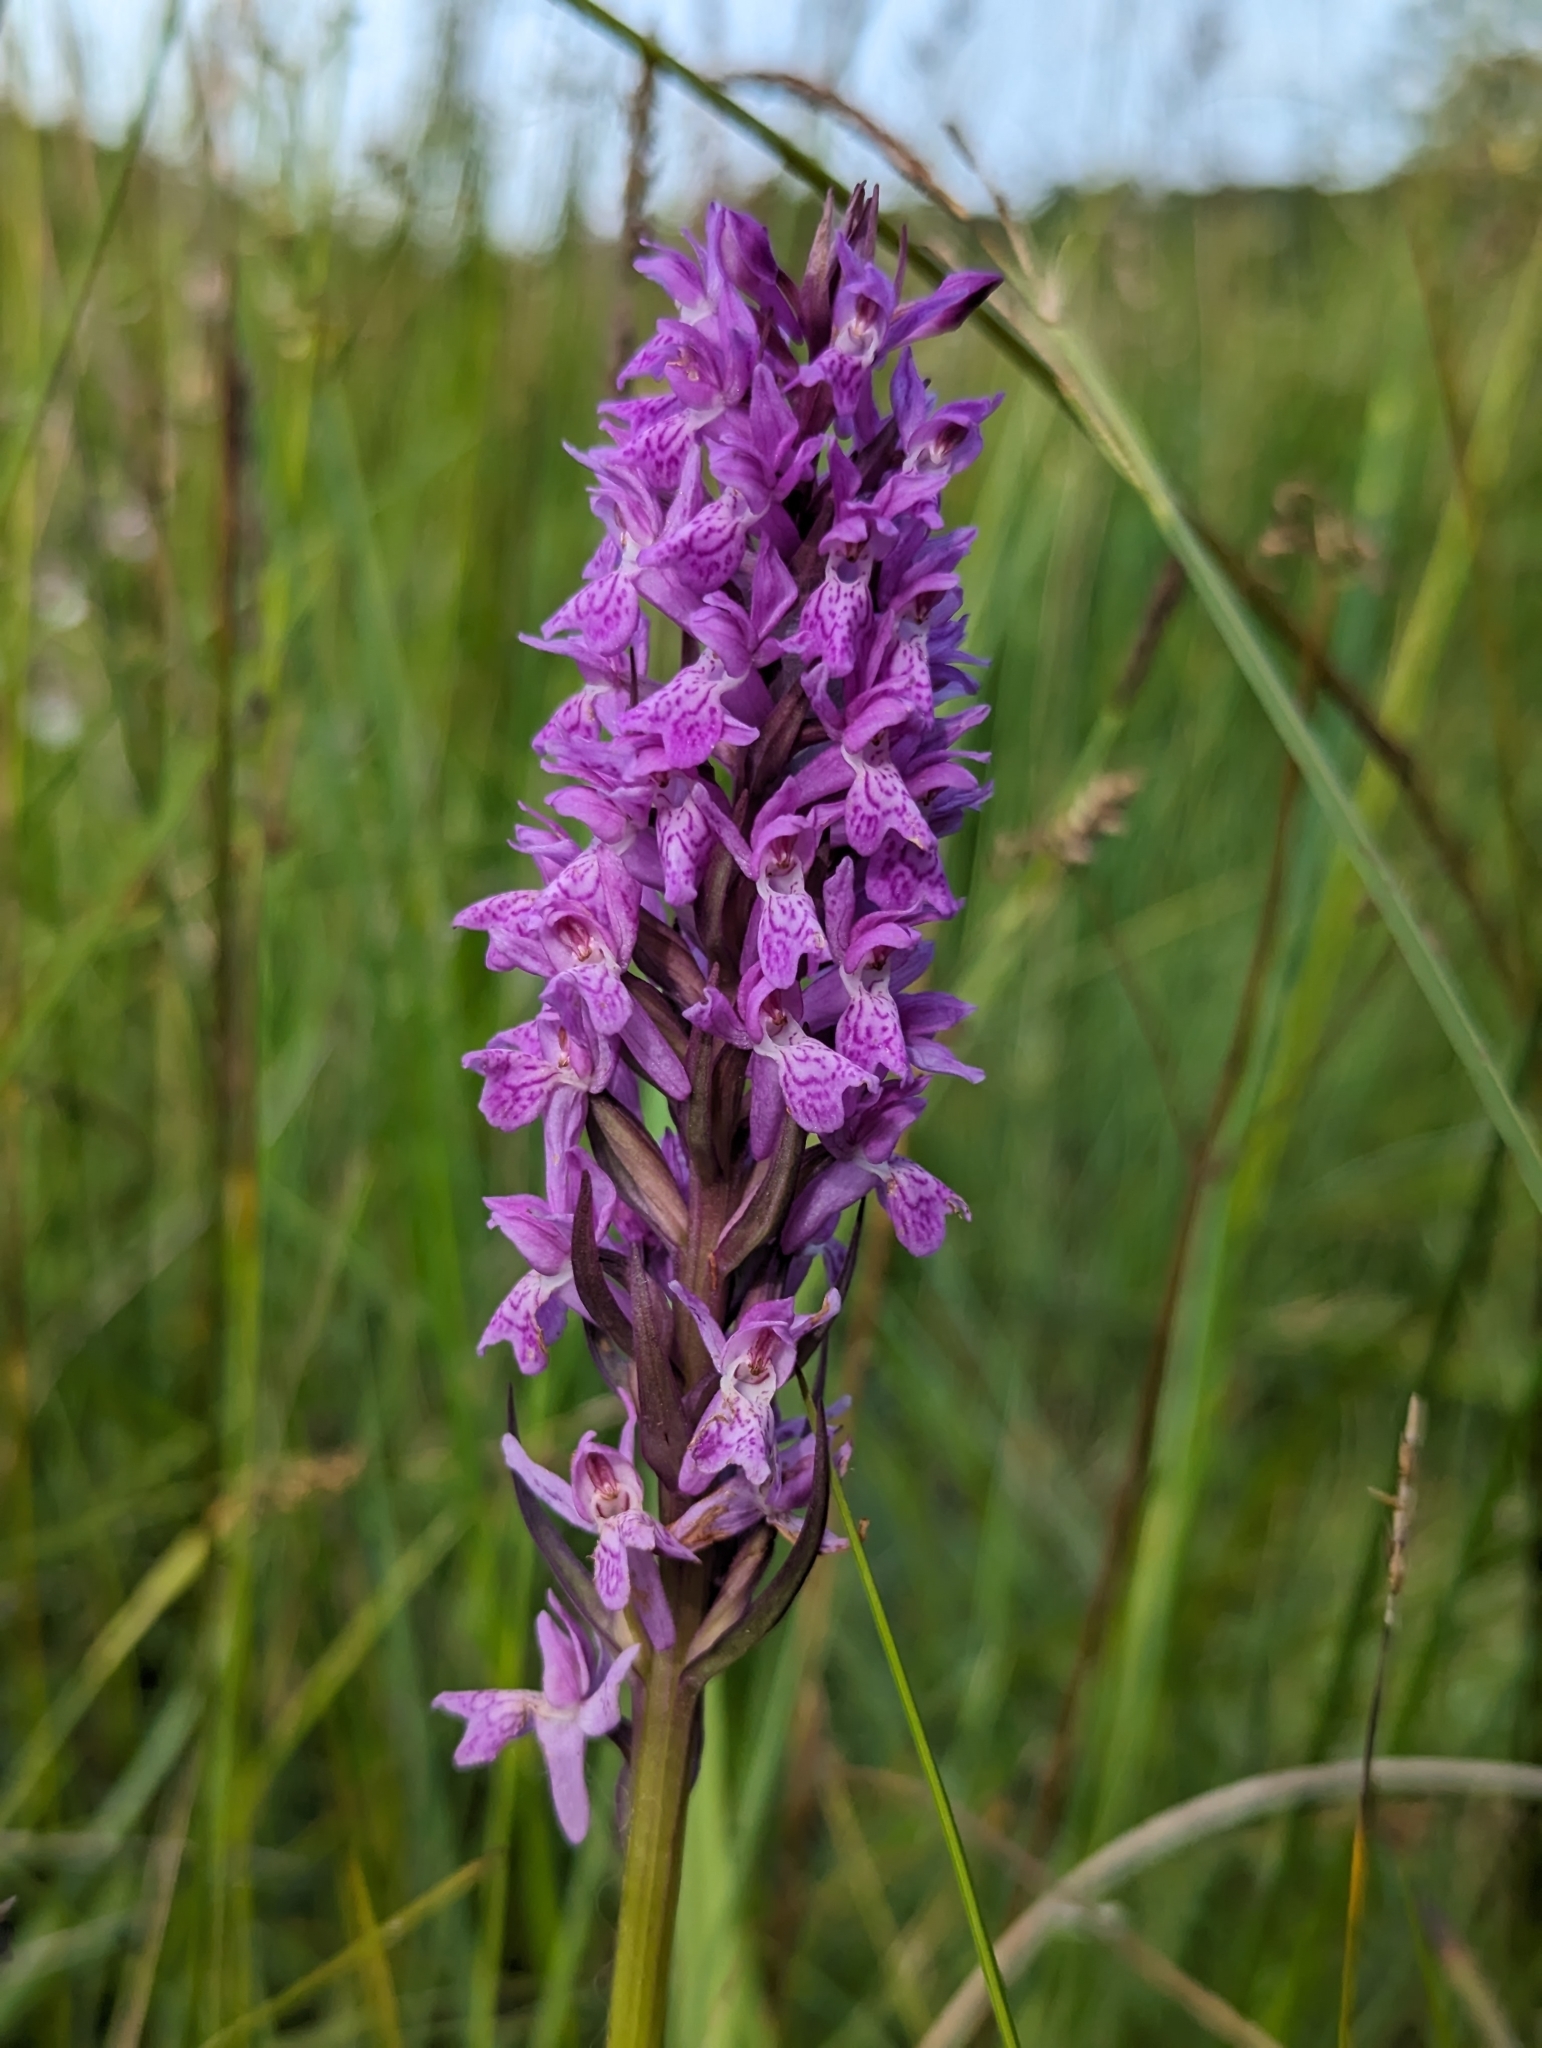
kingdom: Plantae
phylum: Tracheophyta
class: Liliopsida
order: Asparagales
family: Orchidaceae
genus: Dactylorhiza
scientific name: Dactylorhiza incarnata
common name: Early marsh-orchid
